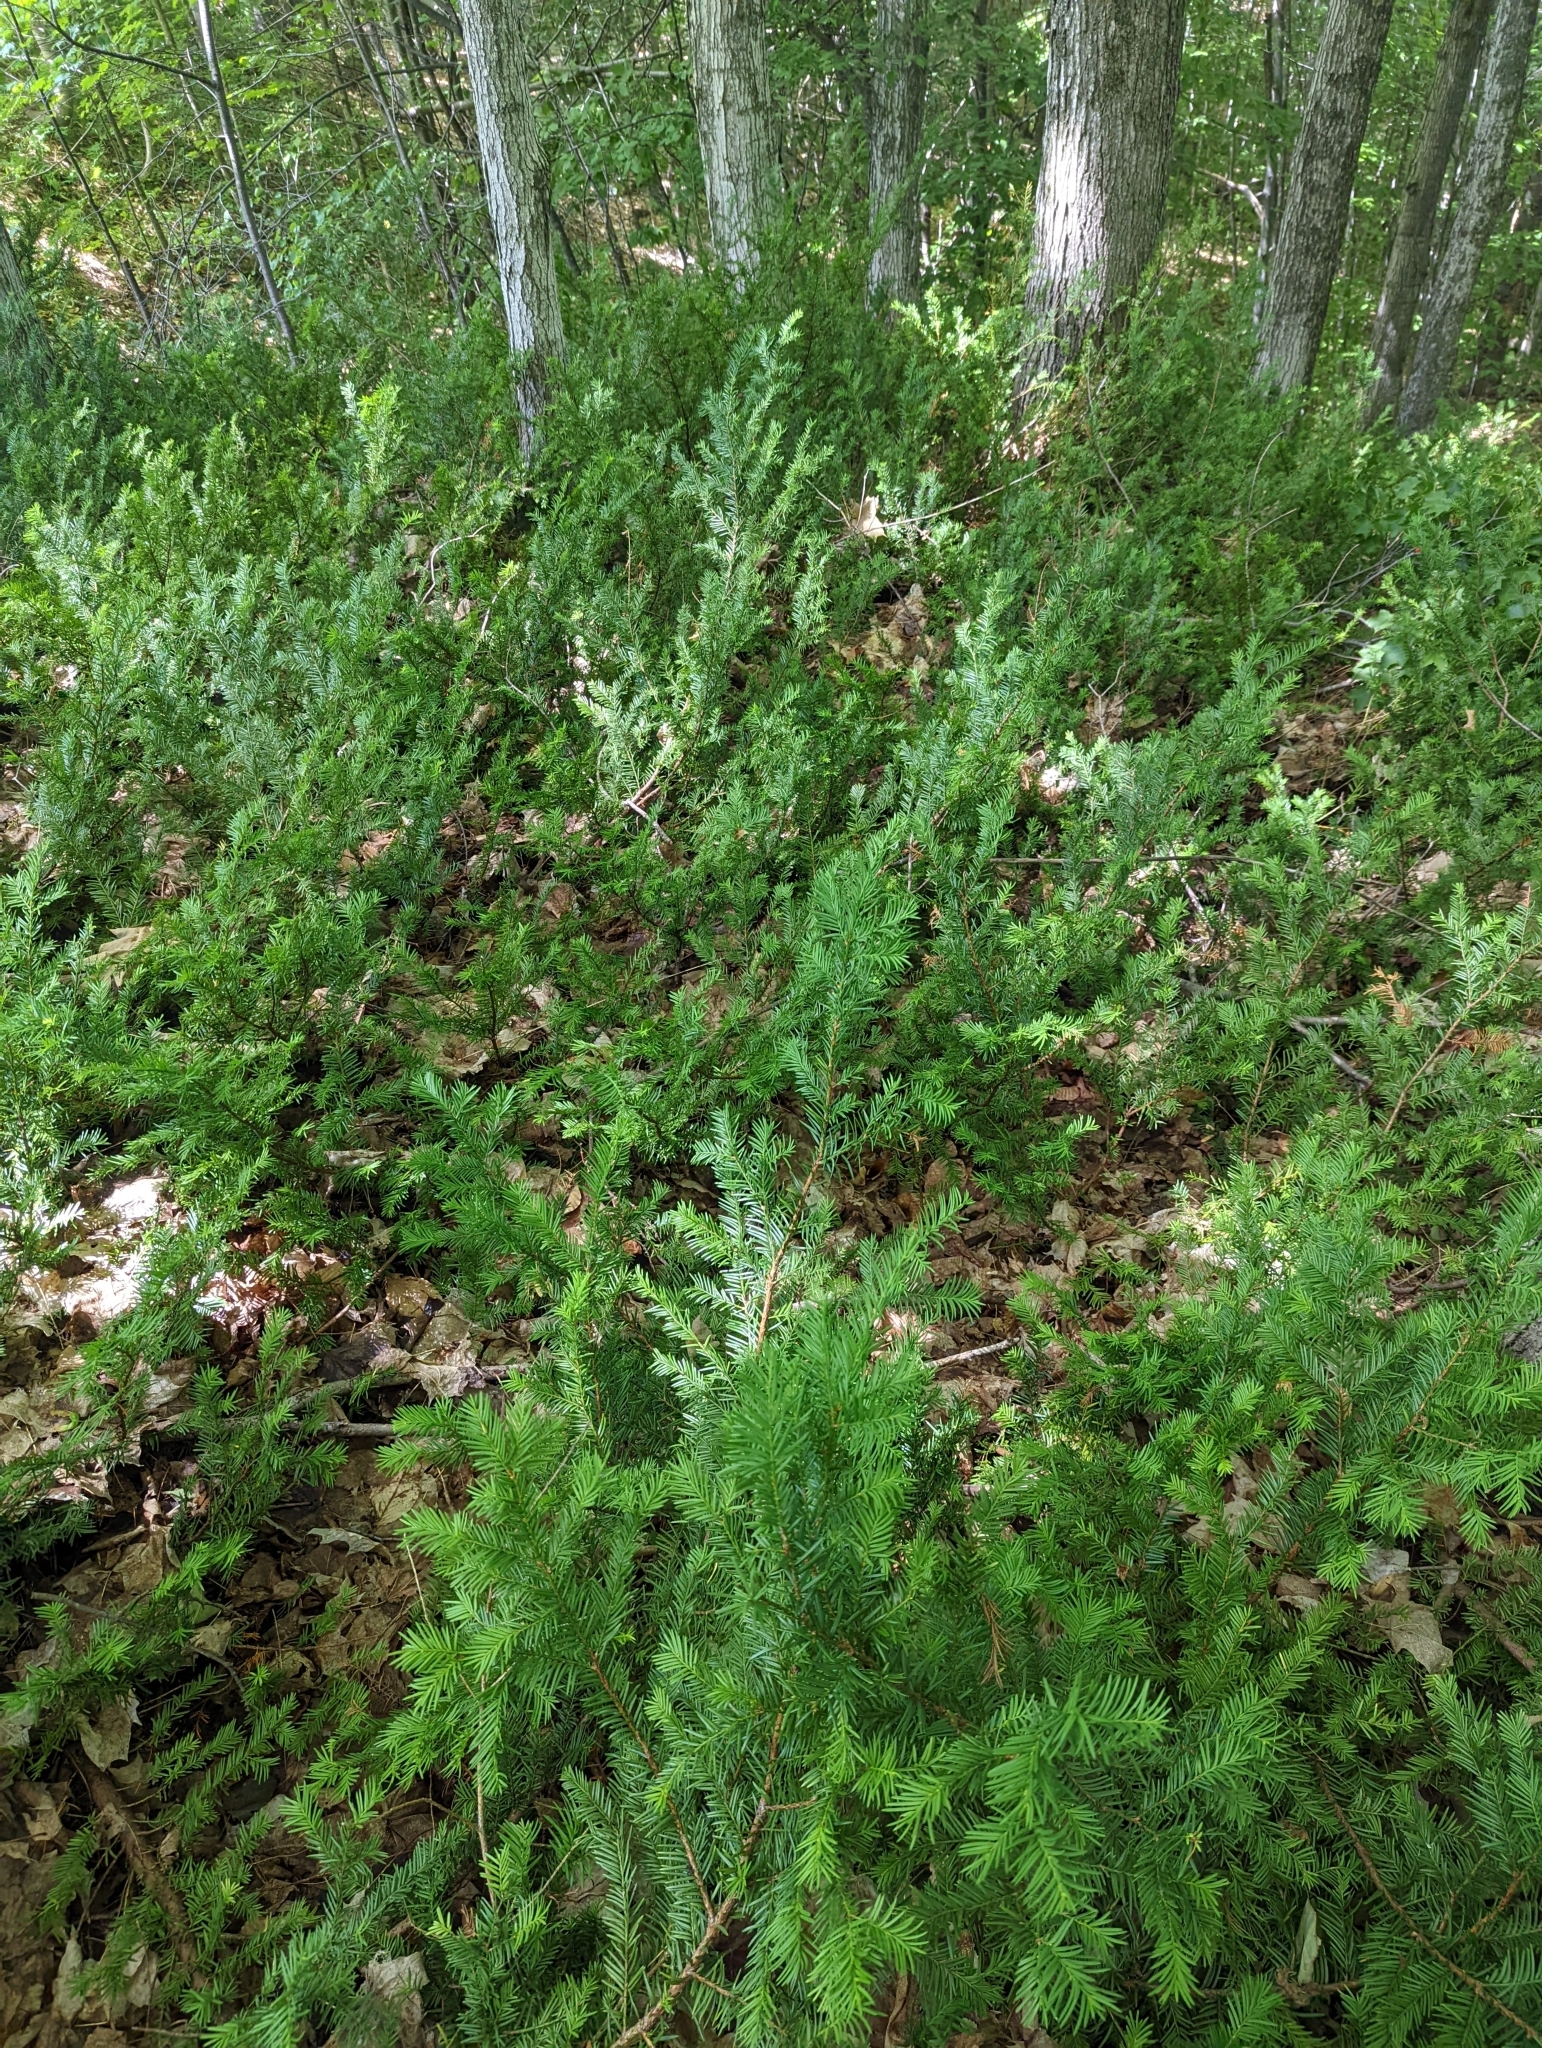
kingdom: Plantae
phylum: Tracheophyta
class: Pinopsida
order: Pinales
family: Taxaceae
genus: Taxus
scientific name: Taxus canadensis
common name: American yew
